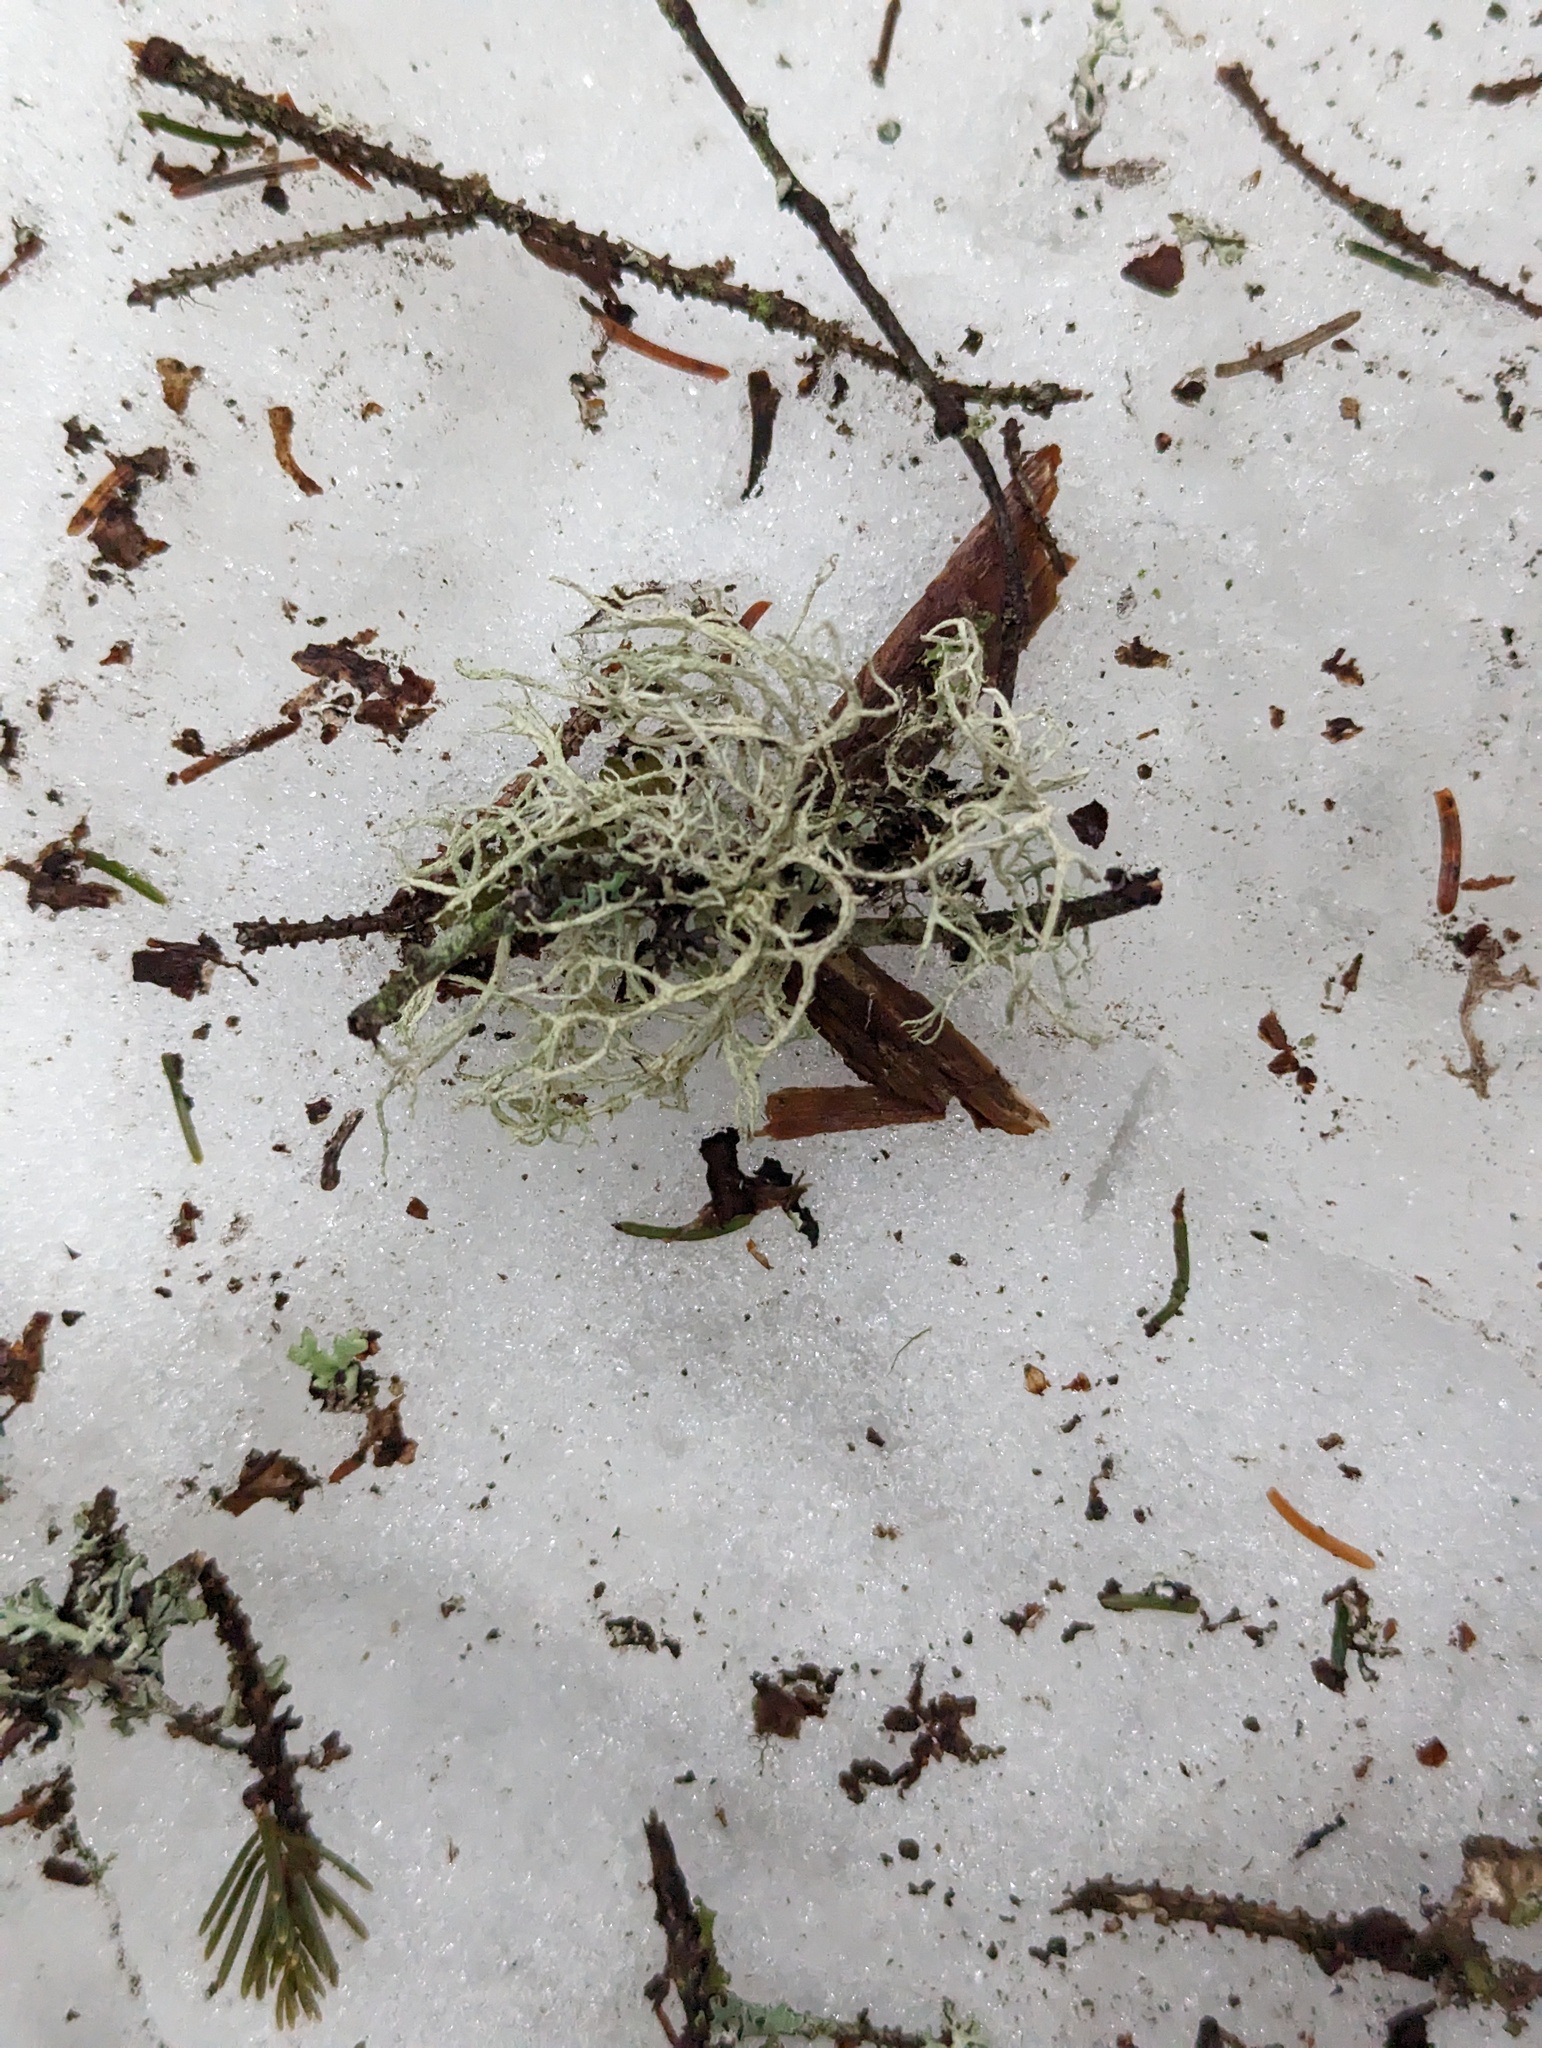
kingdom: Fungi
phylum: Ascomycota
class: Lecanoromycetes
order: Lecanorales
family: Parmeliaceae
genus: Evernia
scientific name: Evernia mesomorpha
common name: Boreal oak moss lichen
